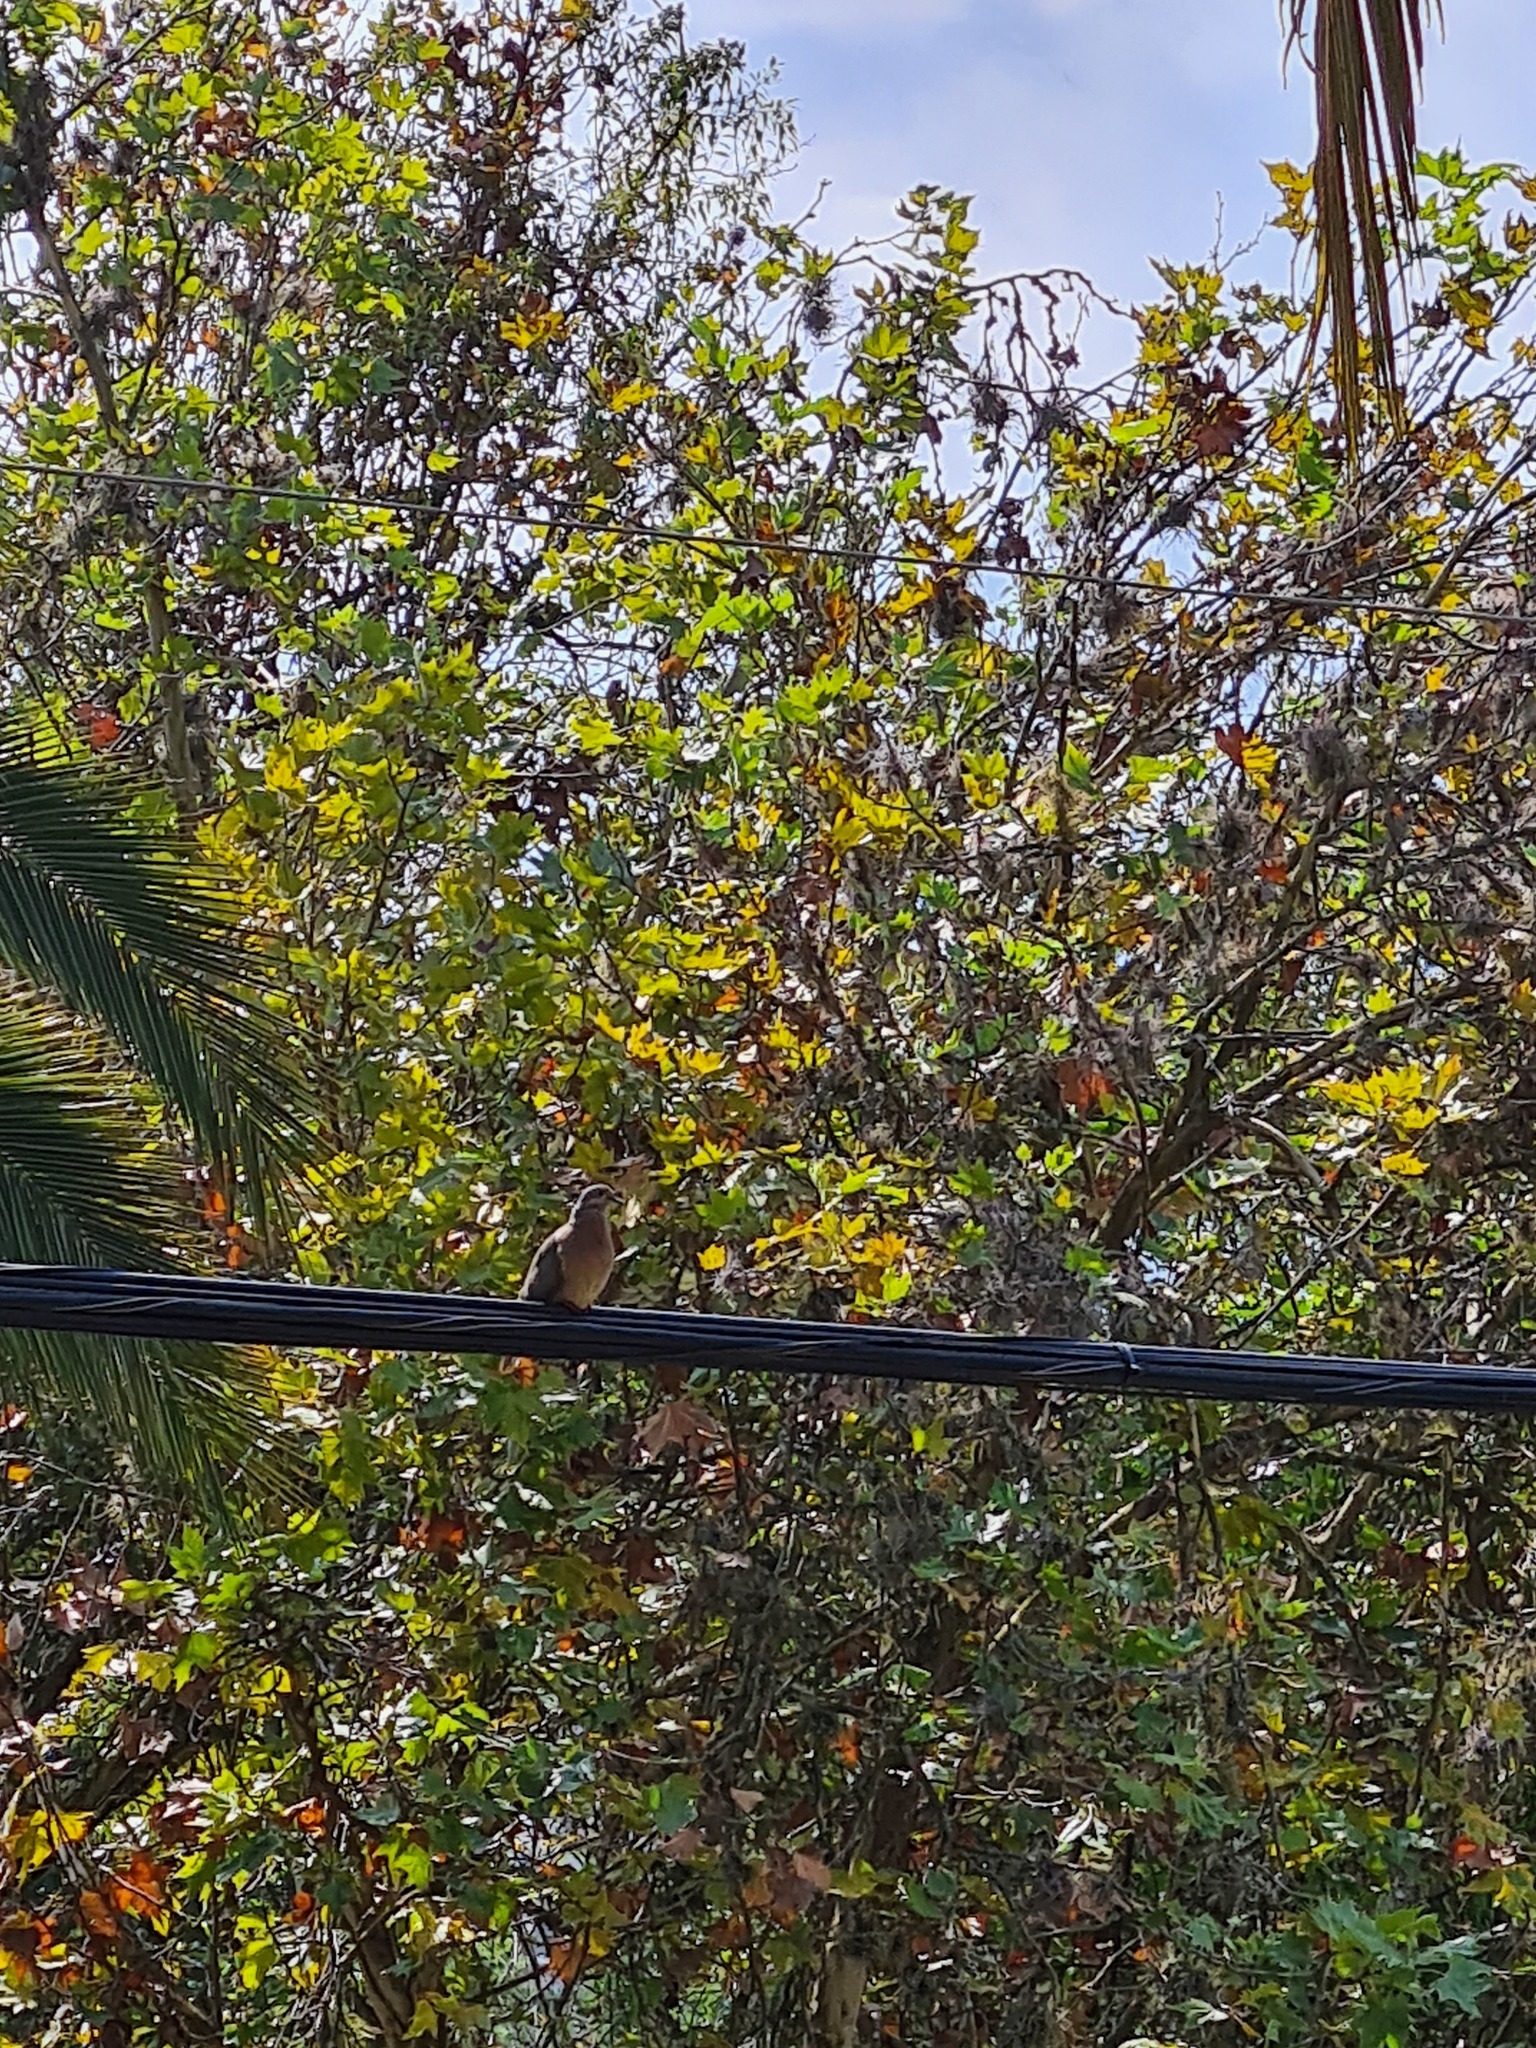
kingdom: Animalia
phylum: Chordata
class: Aves
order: Columbiformes
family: Columbidae
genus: Zenaida
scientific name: Zenaida auriculata
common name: Eared dove
